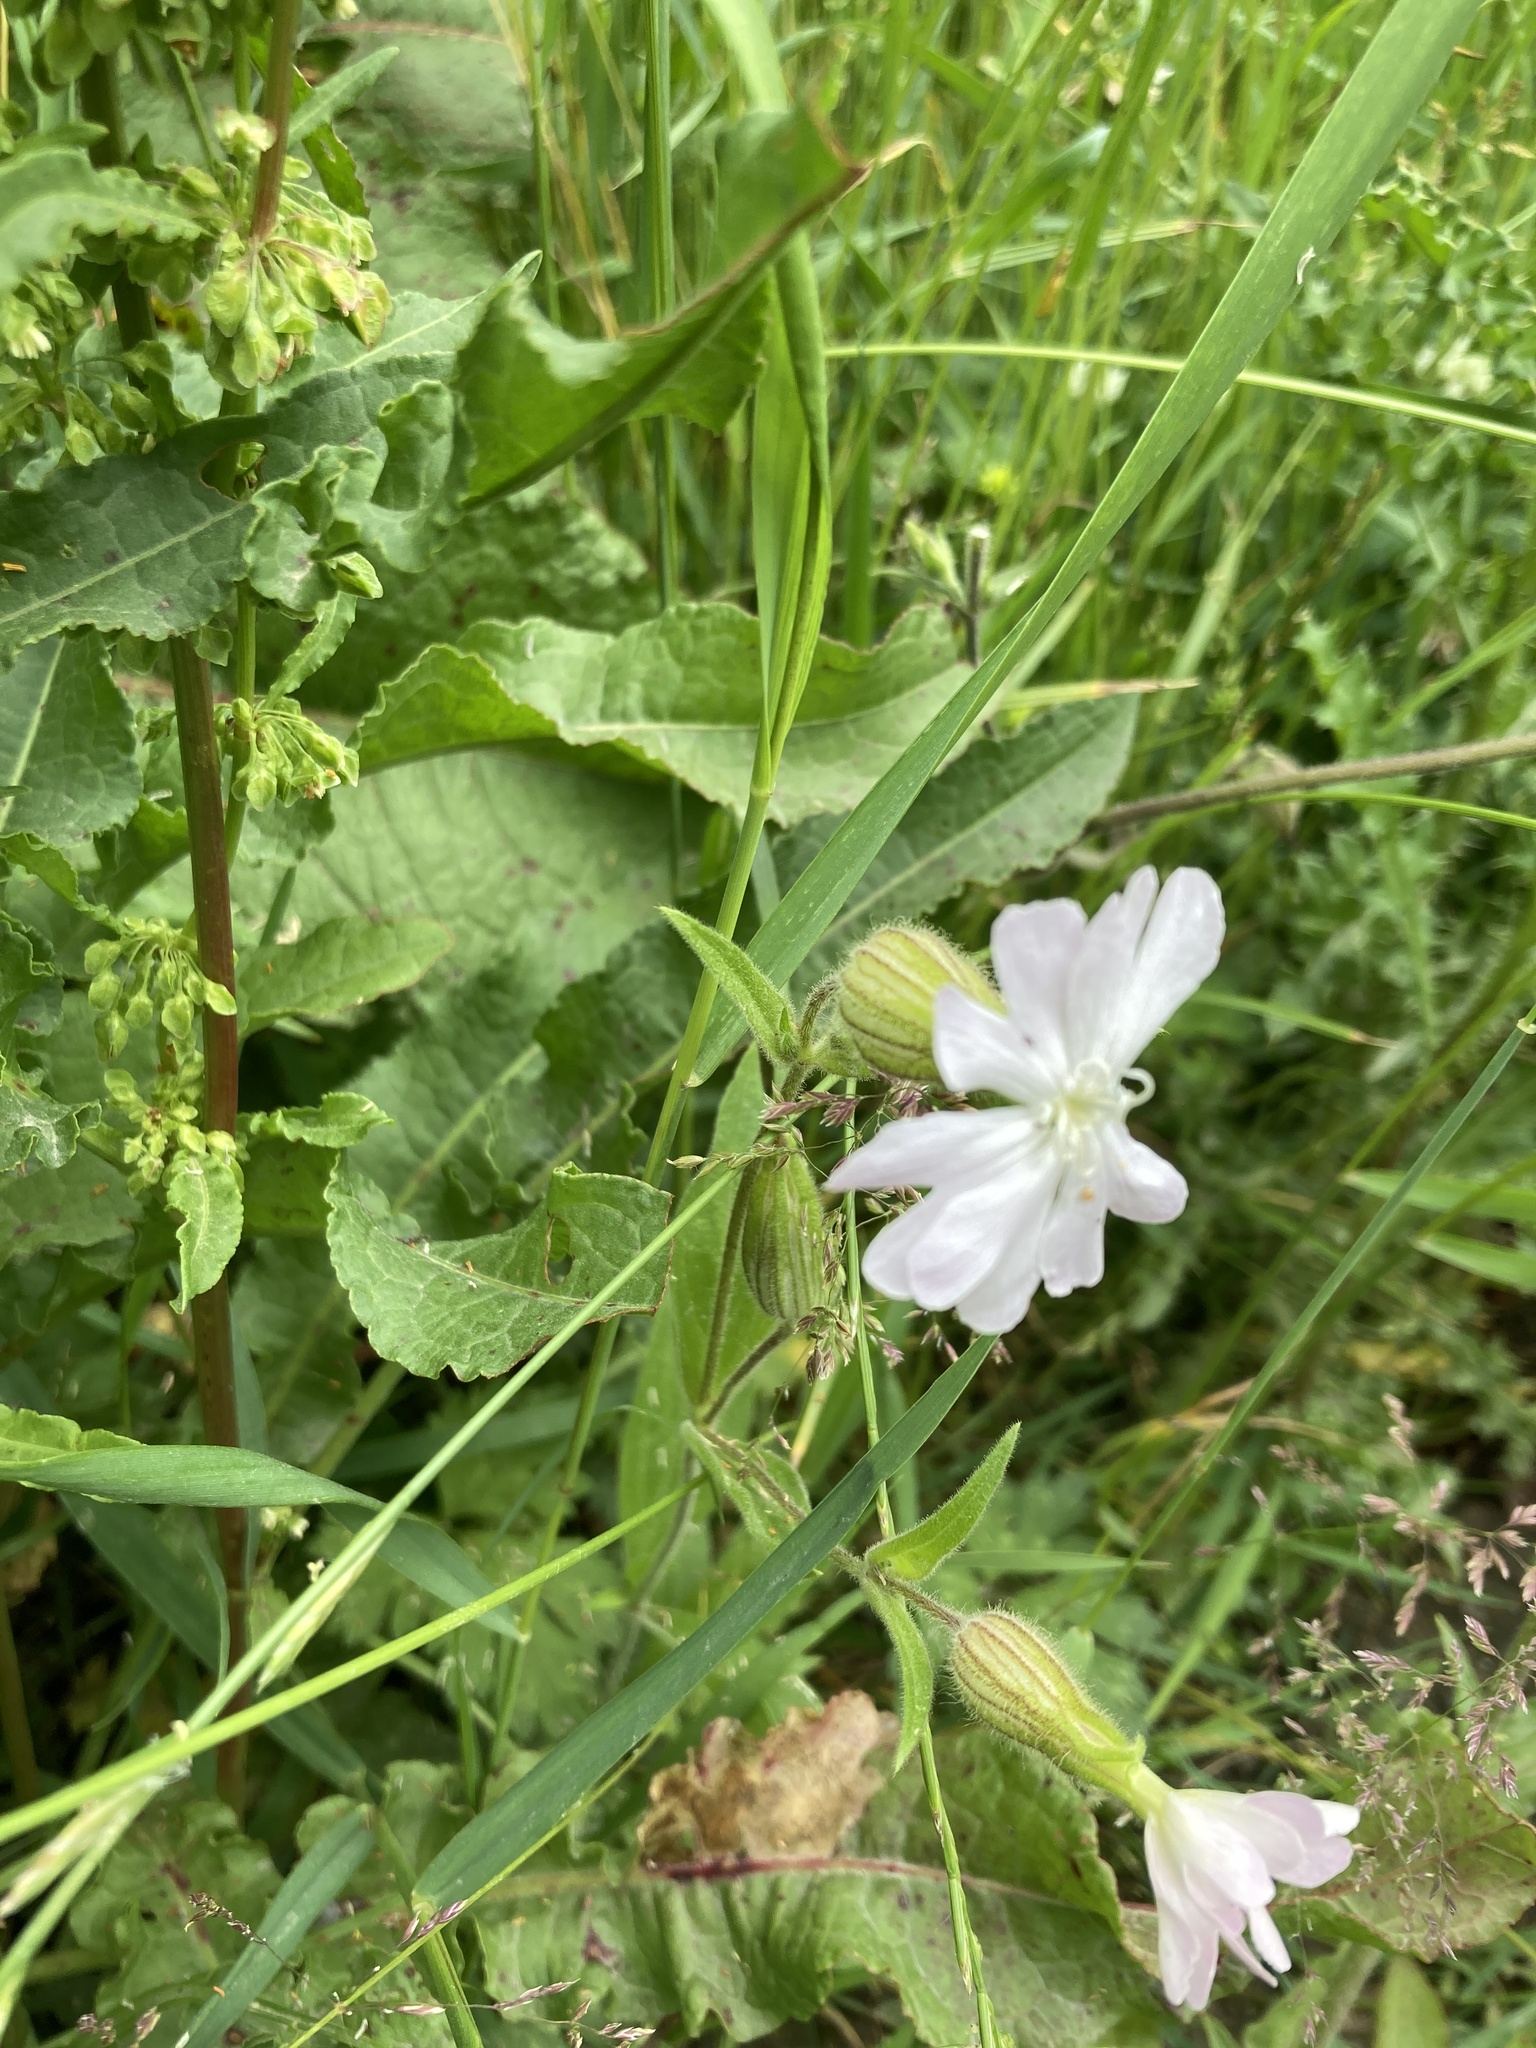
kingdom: Plantae
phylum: Tracheophyta
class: Magnoliopsida
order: Caryophyllales
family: Caryophyllaceae
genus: Silene
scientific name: Silene latifolia
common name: White campion
